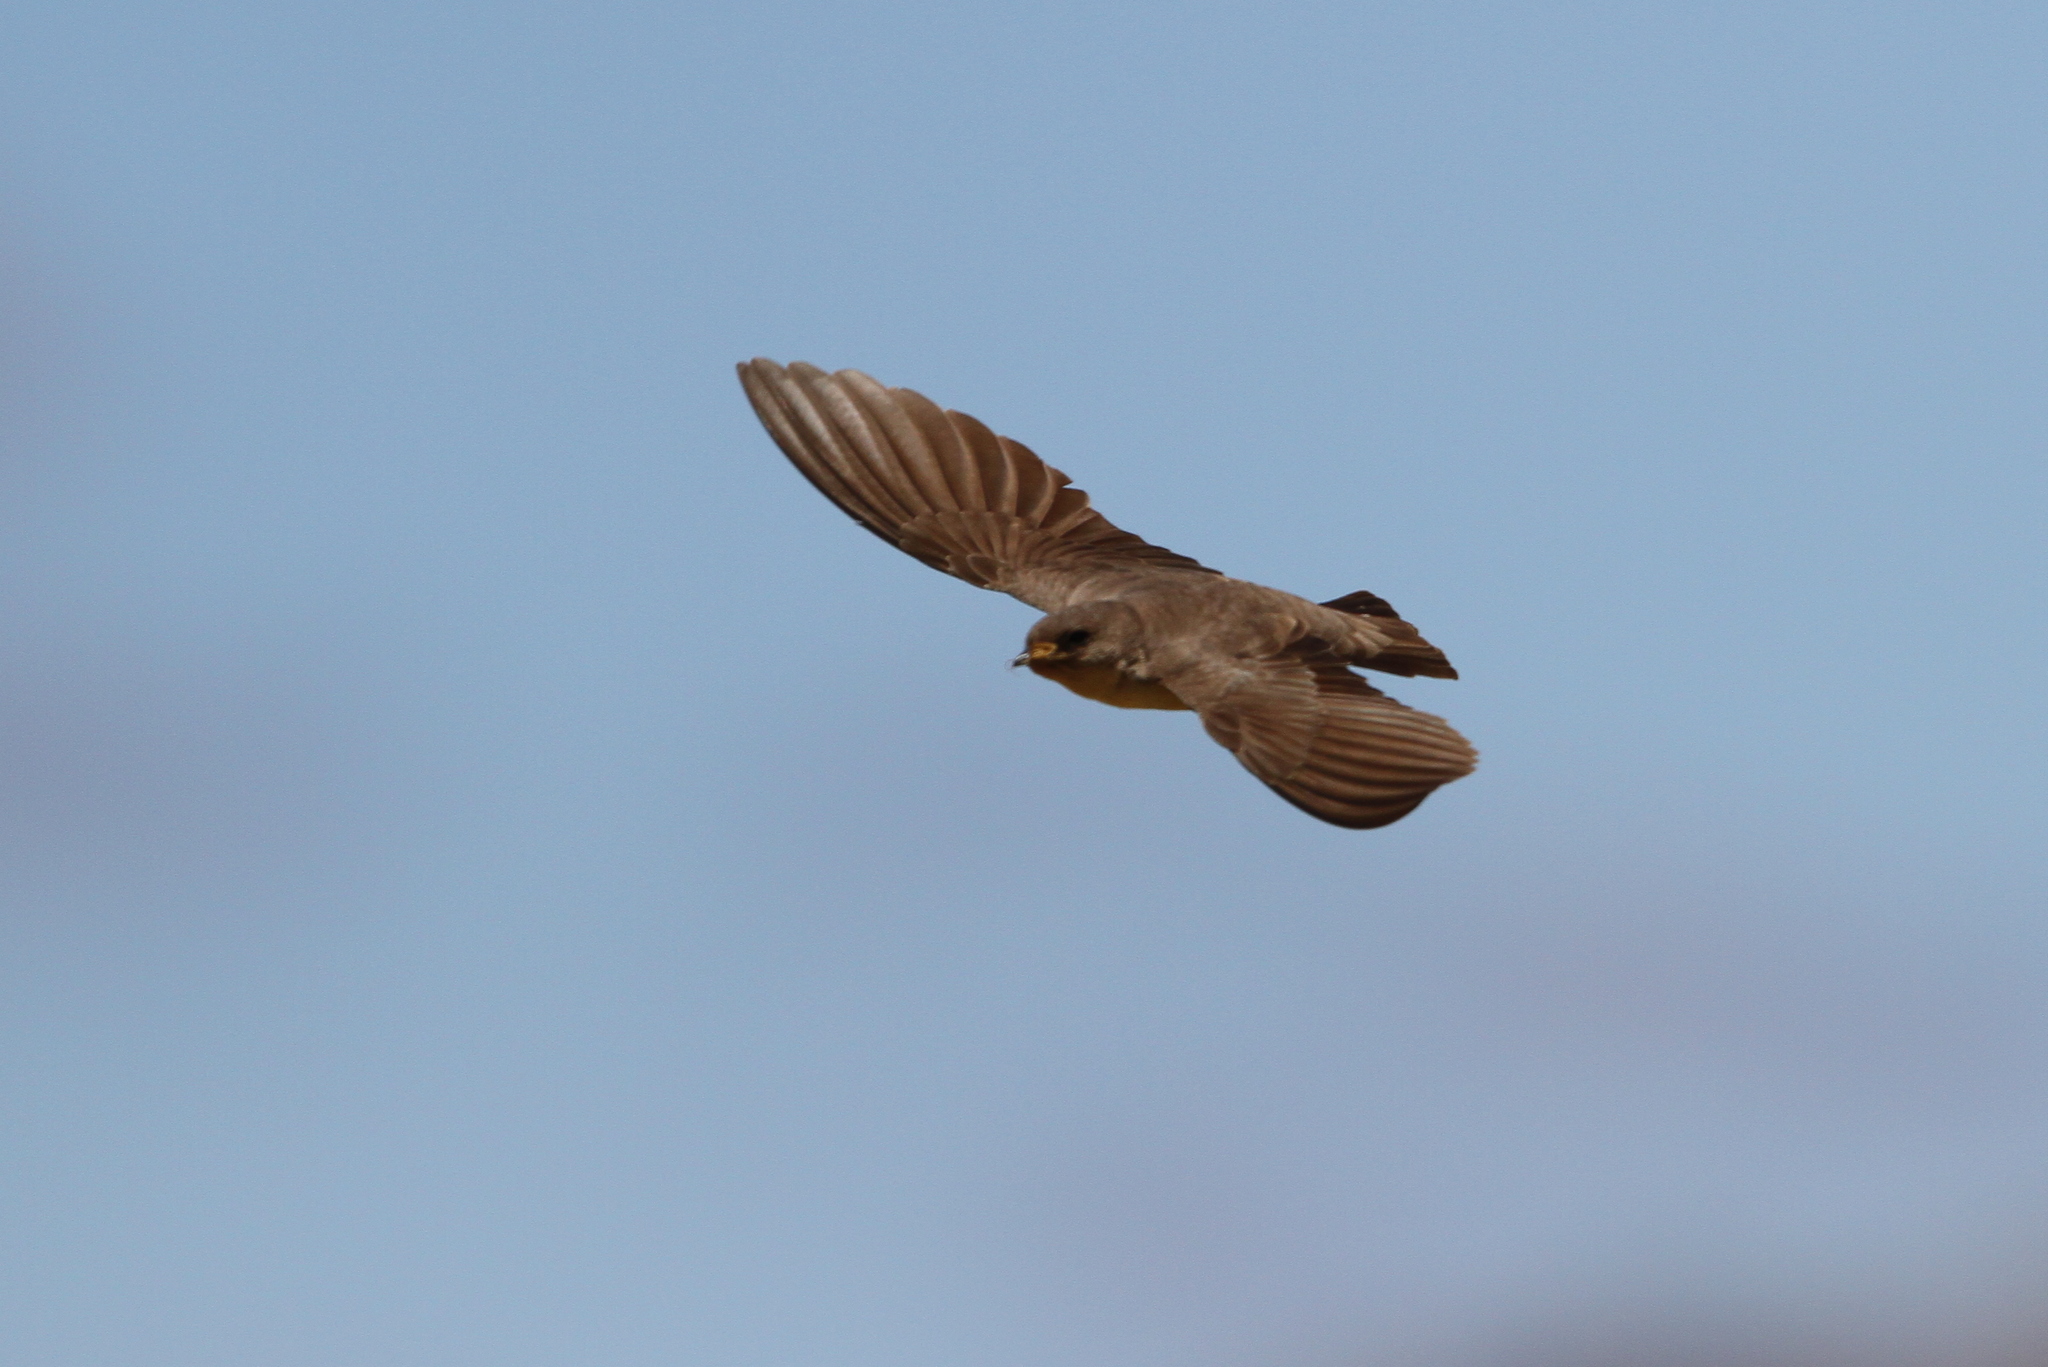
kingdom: Animalia
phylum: Chordata
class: Aves
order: Passeriformes
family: Hirundinidae
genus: Ptyonoprogne
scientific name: Ptyonoprogne fuligula
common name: Rock martin
